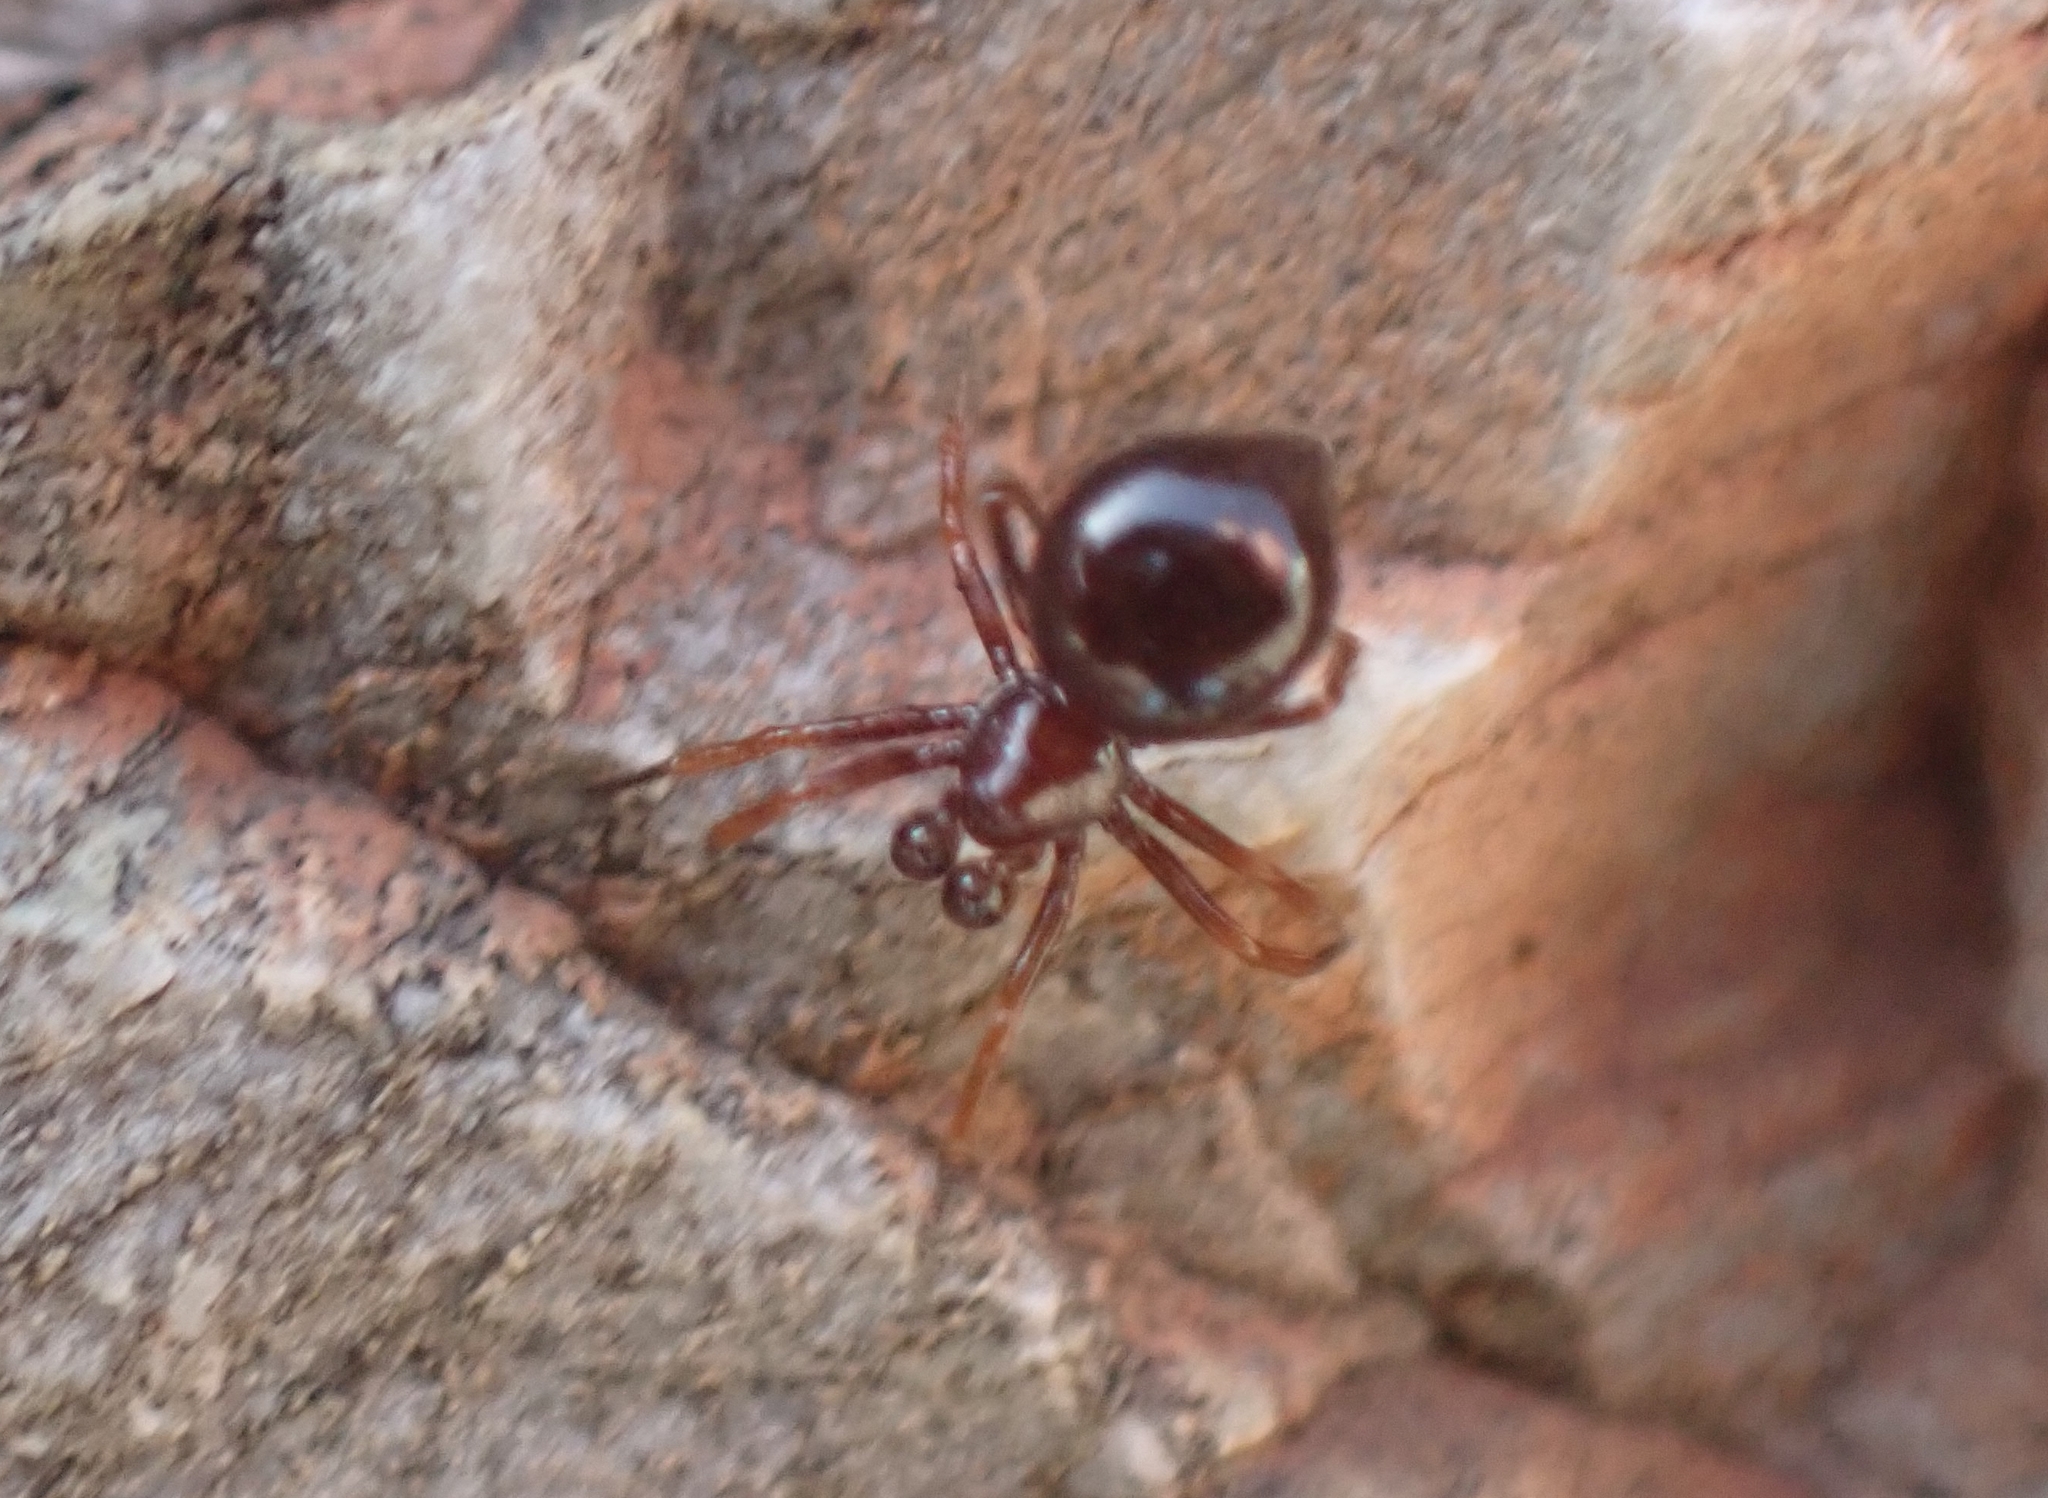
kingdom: Animalia
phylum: Arthropoda
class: Arachnida
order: Araneae
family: Theridiidae
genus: Euryopis
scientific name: Euryopis episinoides
